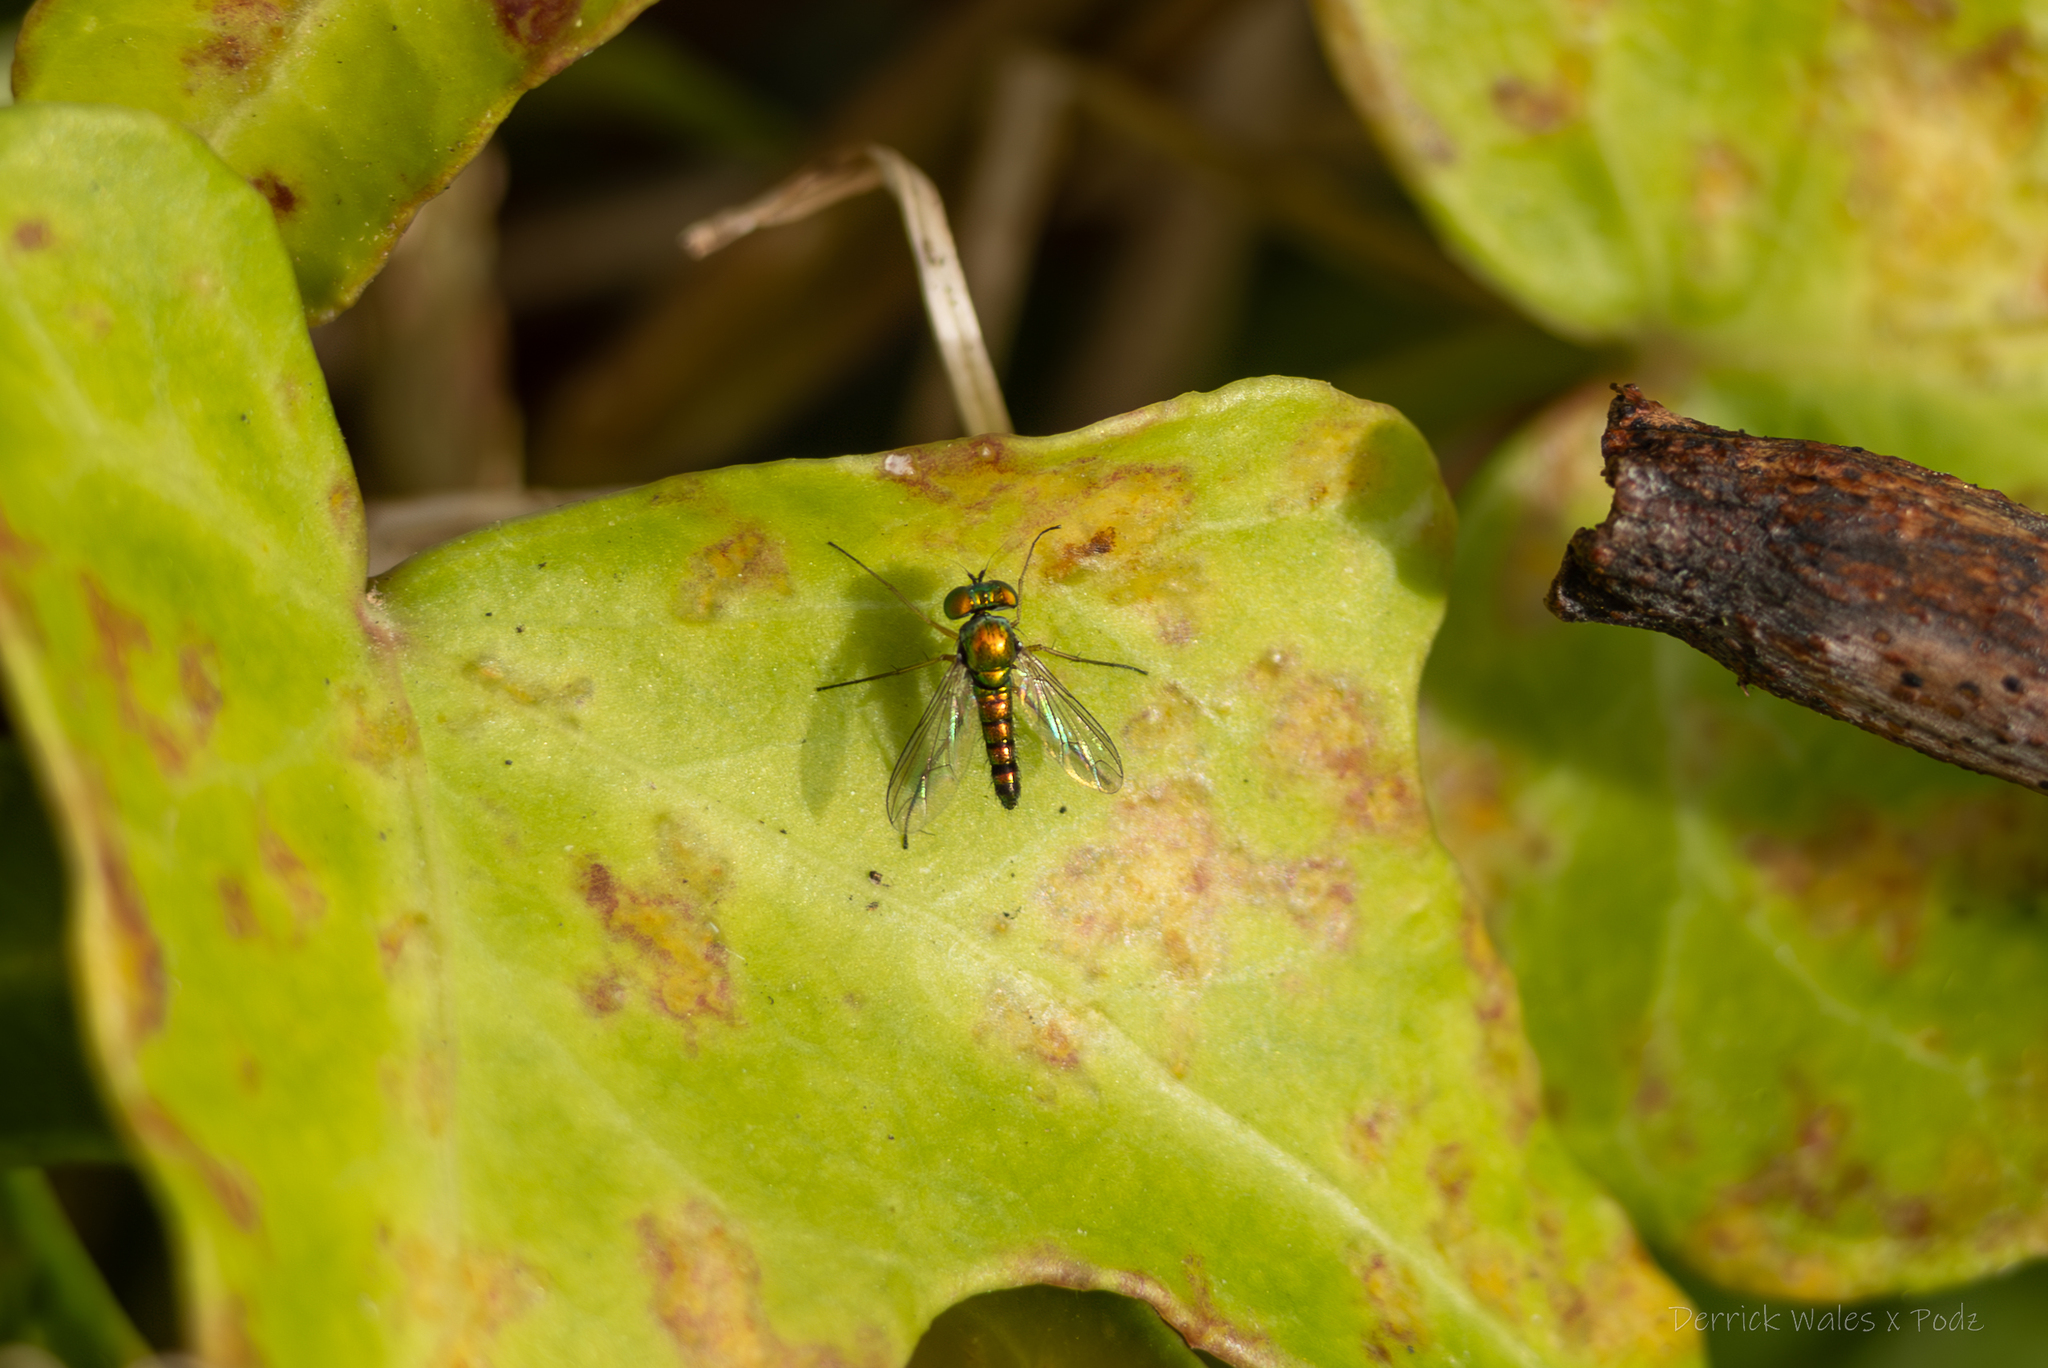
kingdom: Animalia
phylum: Arthropoda
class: Insecta
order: Diptera
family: Dolichopodidae
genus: Condylostylus
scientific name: Condylostylus flavipes
